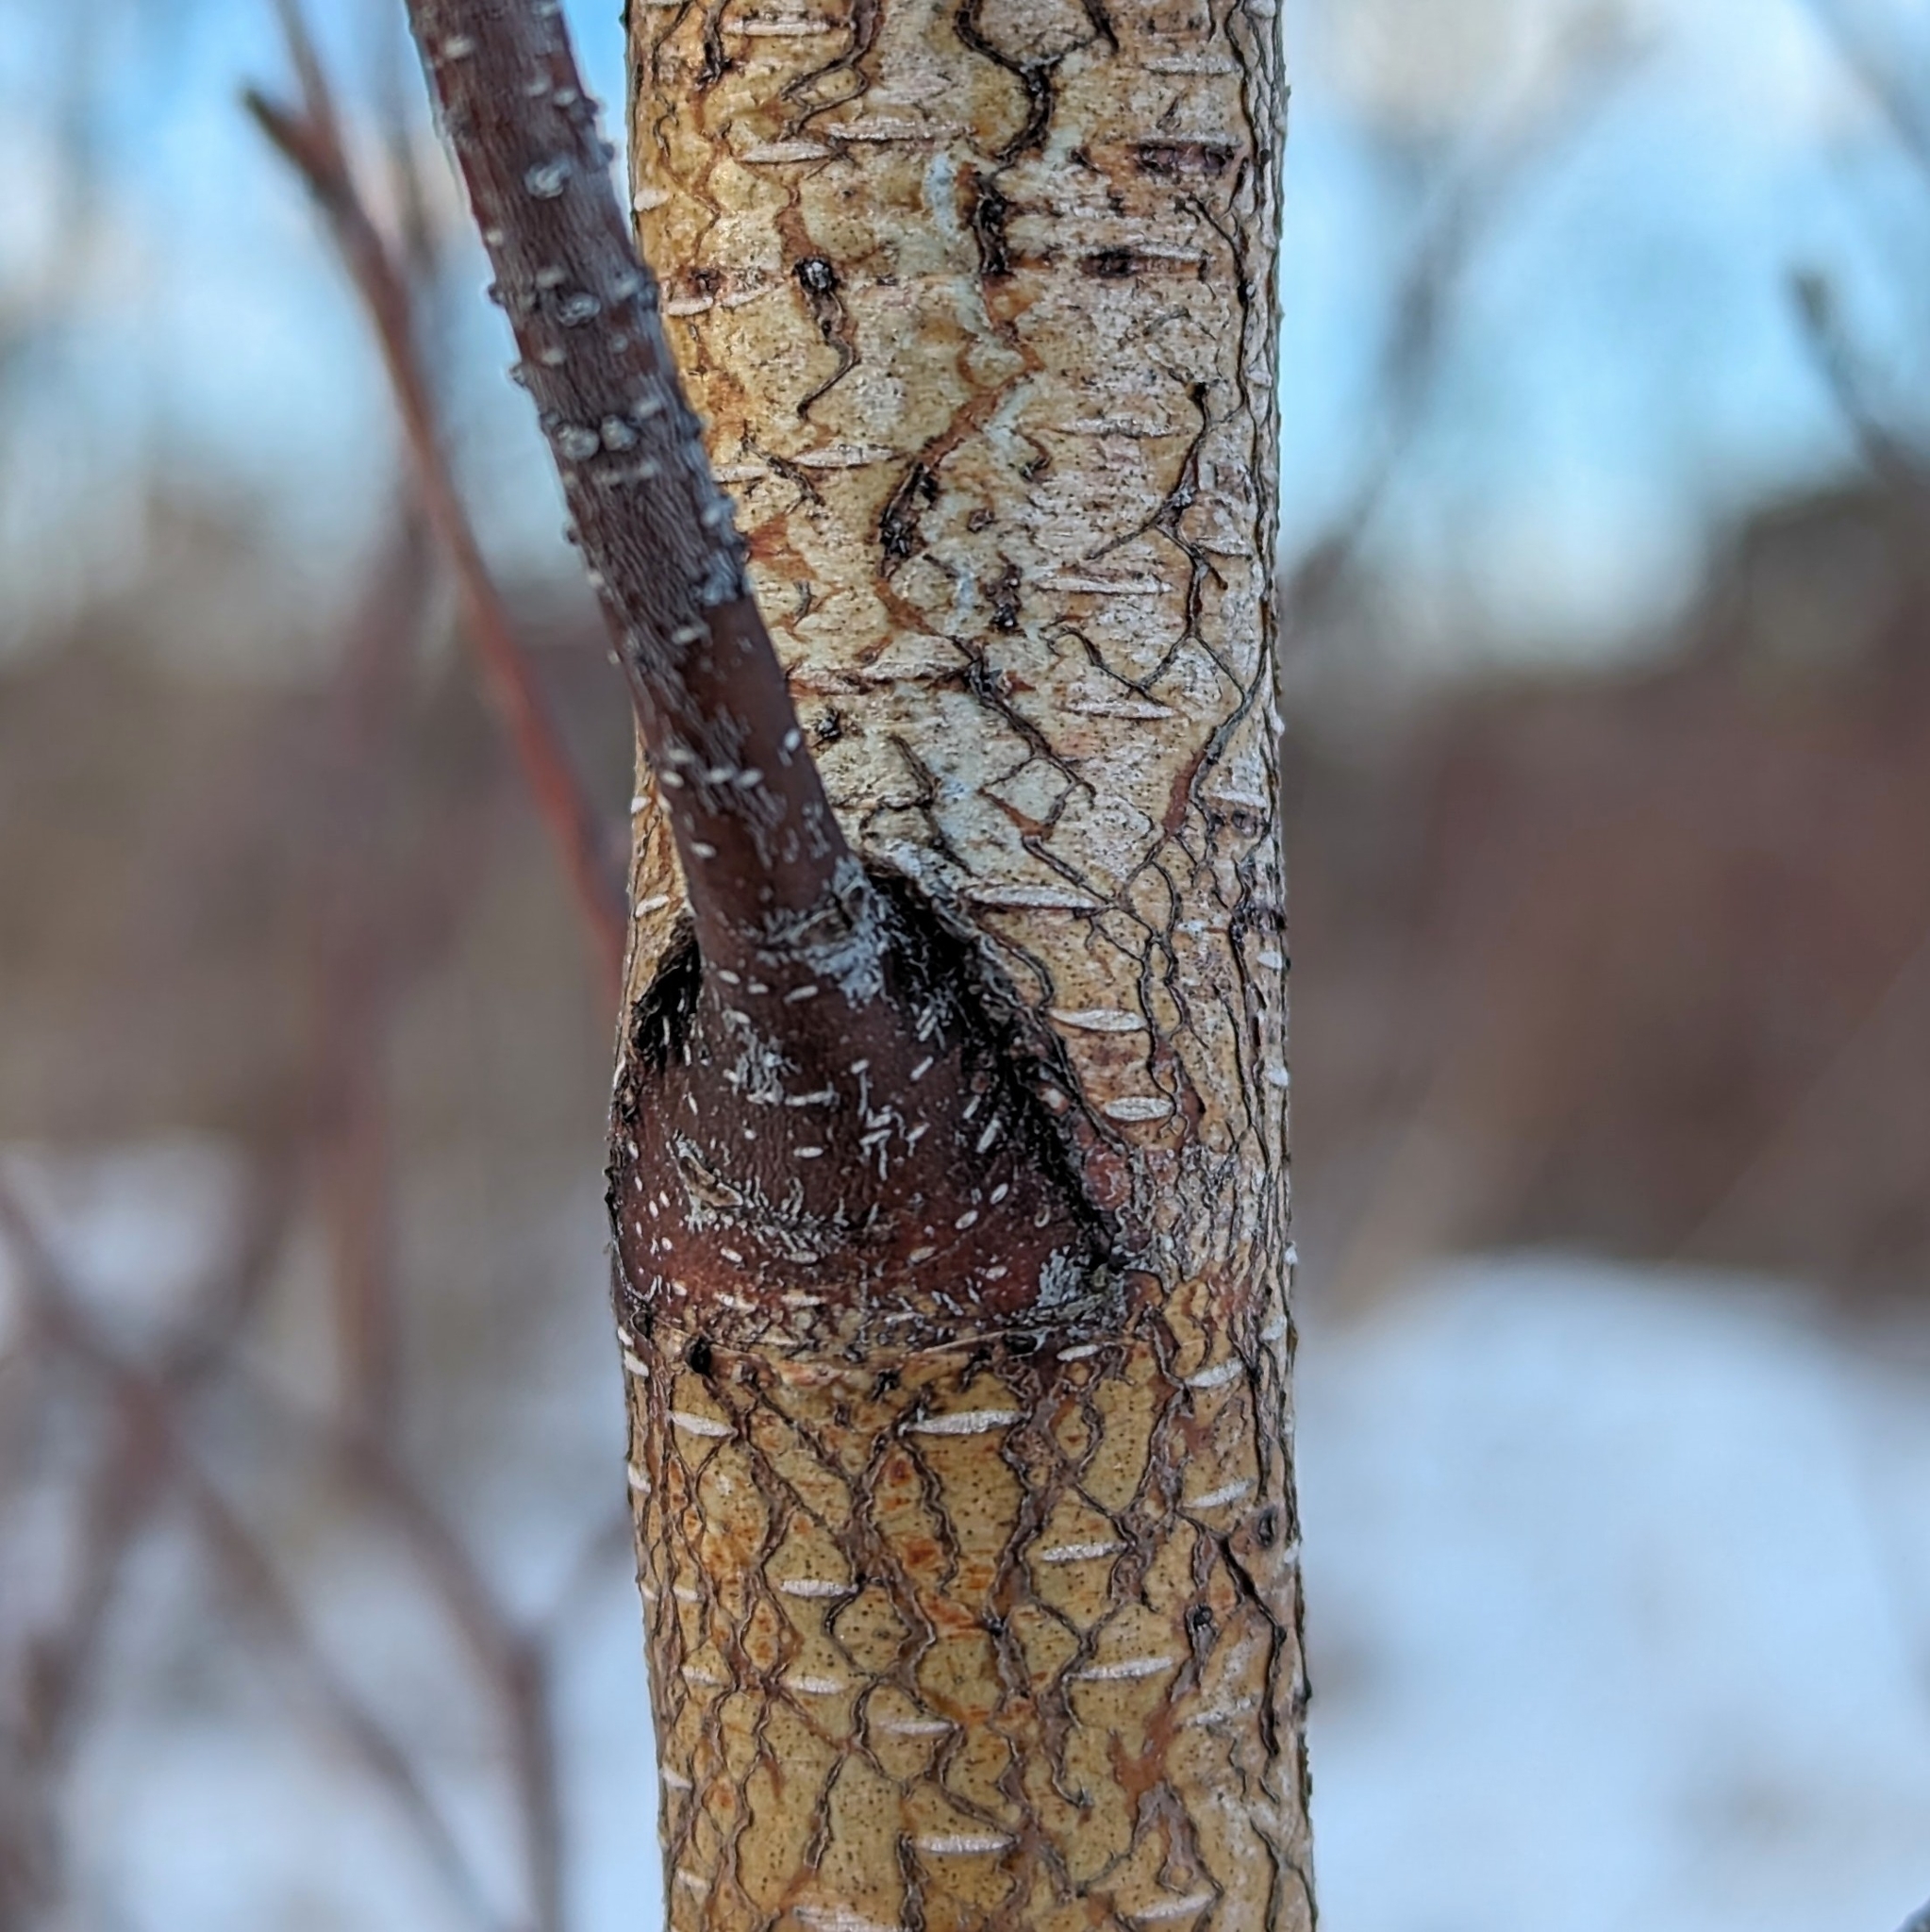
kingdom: Plantae
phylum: Tracheophyta
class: Magnoliopsida
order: Fagales
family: Betulaceae
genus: Betula
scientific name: Betula populifolia
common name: Fire birch
